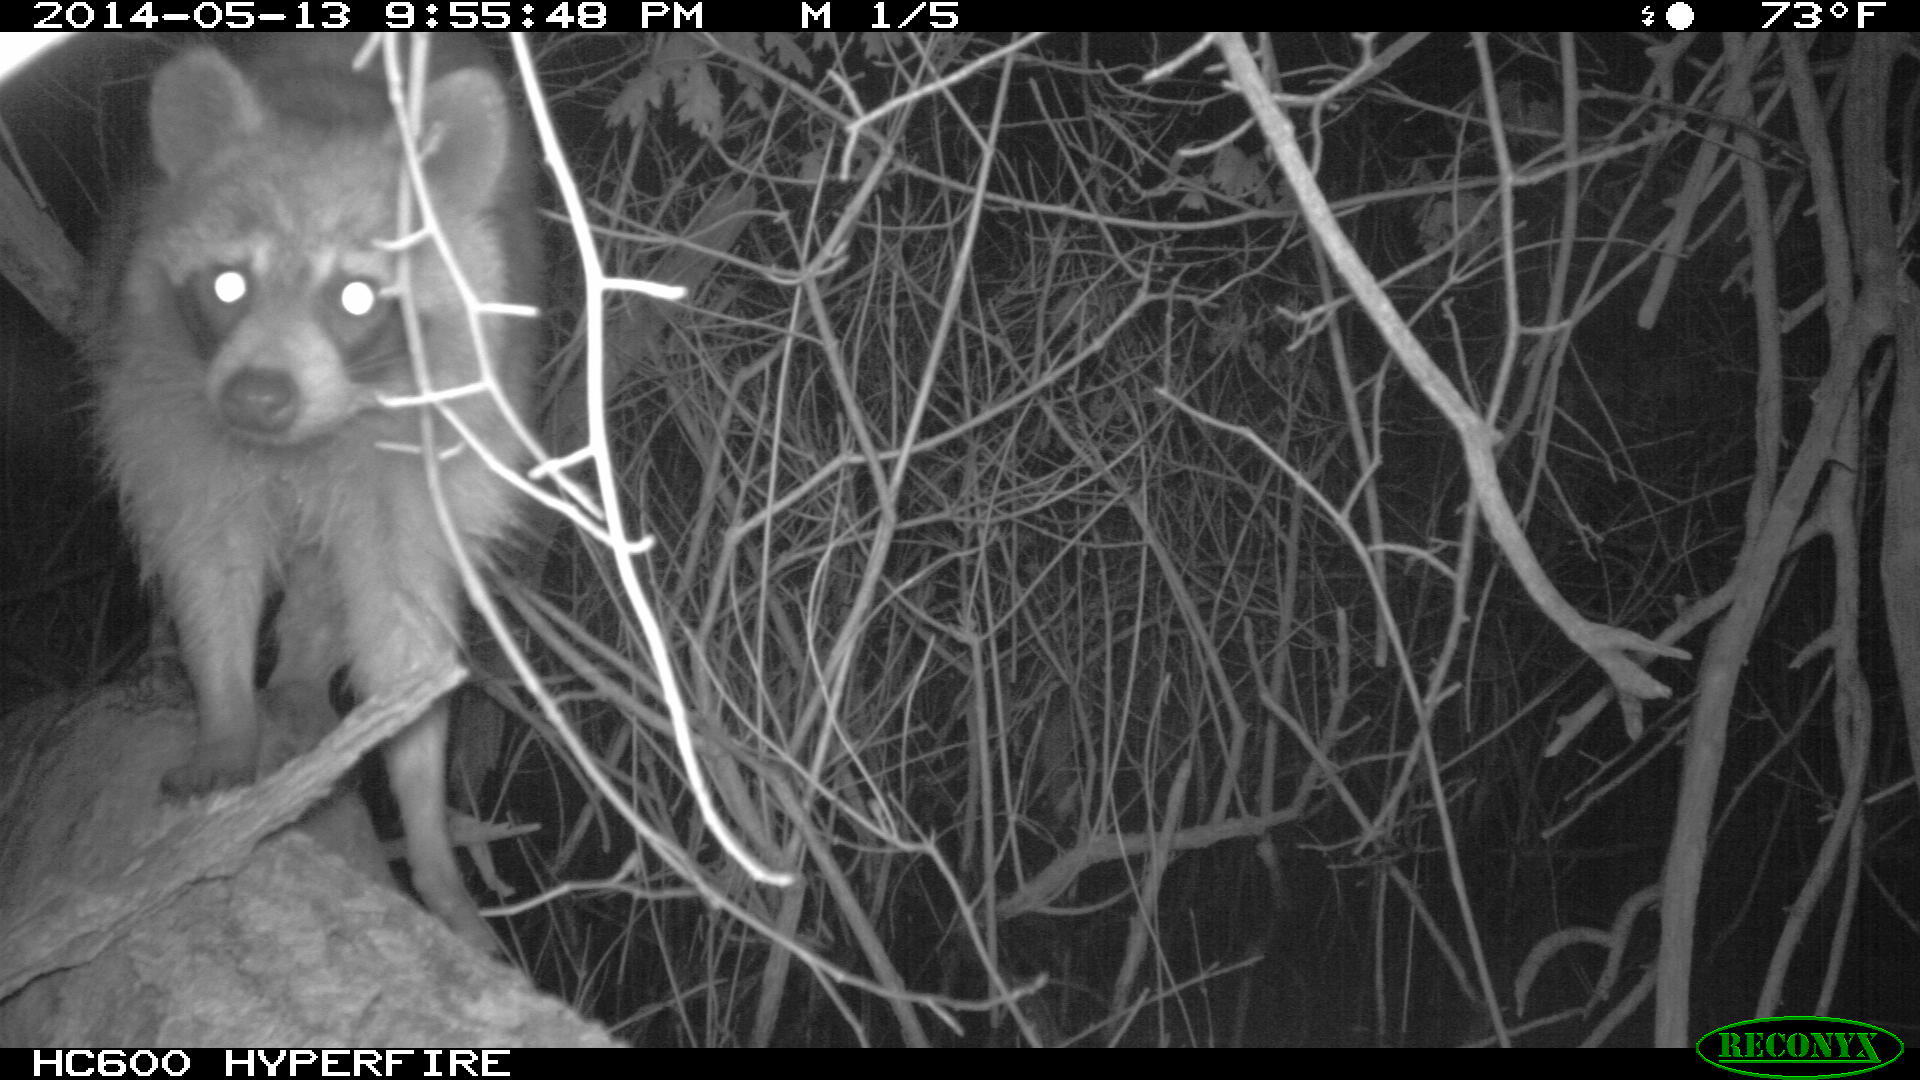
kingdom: Animalia
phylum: Chordata
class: Mammalia
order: Carnivora
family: Procyonidae
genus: Procyon
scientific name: Procyon lotor
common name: Raccoon
